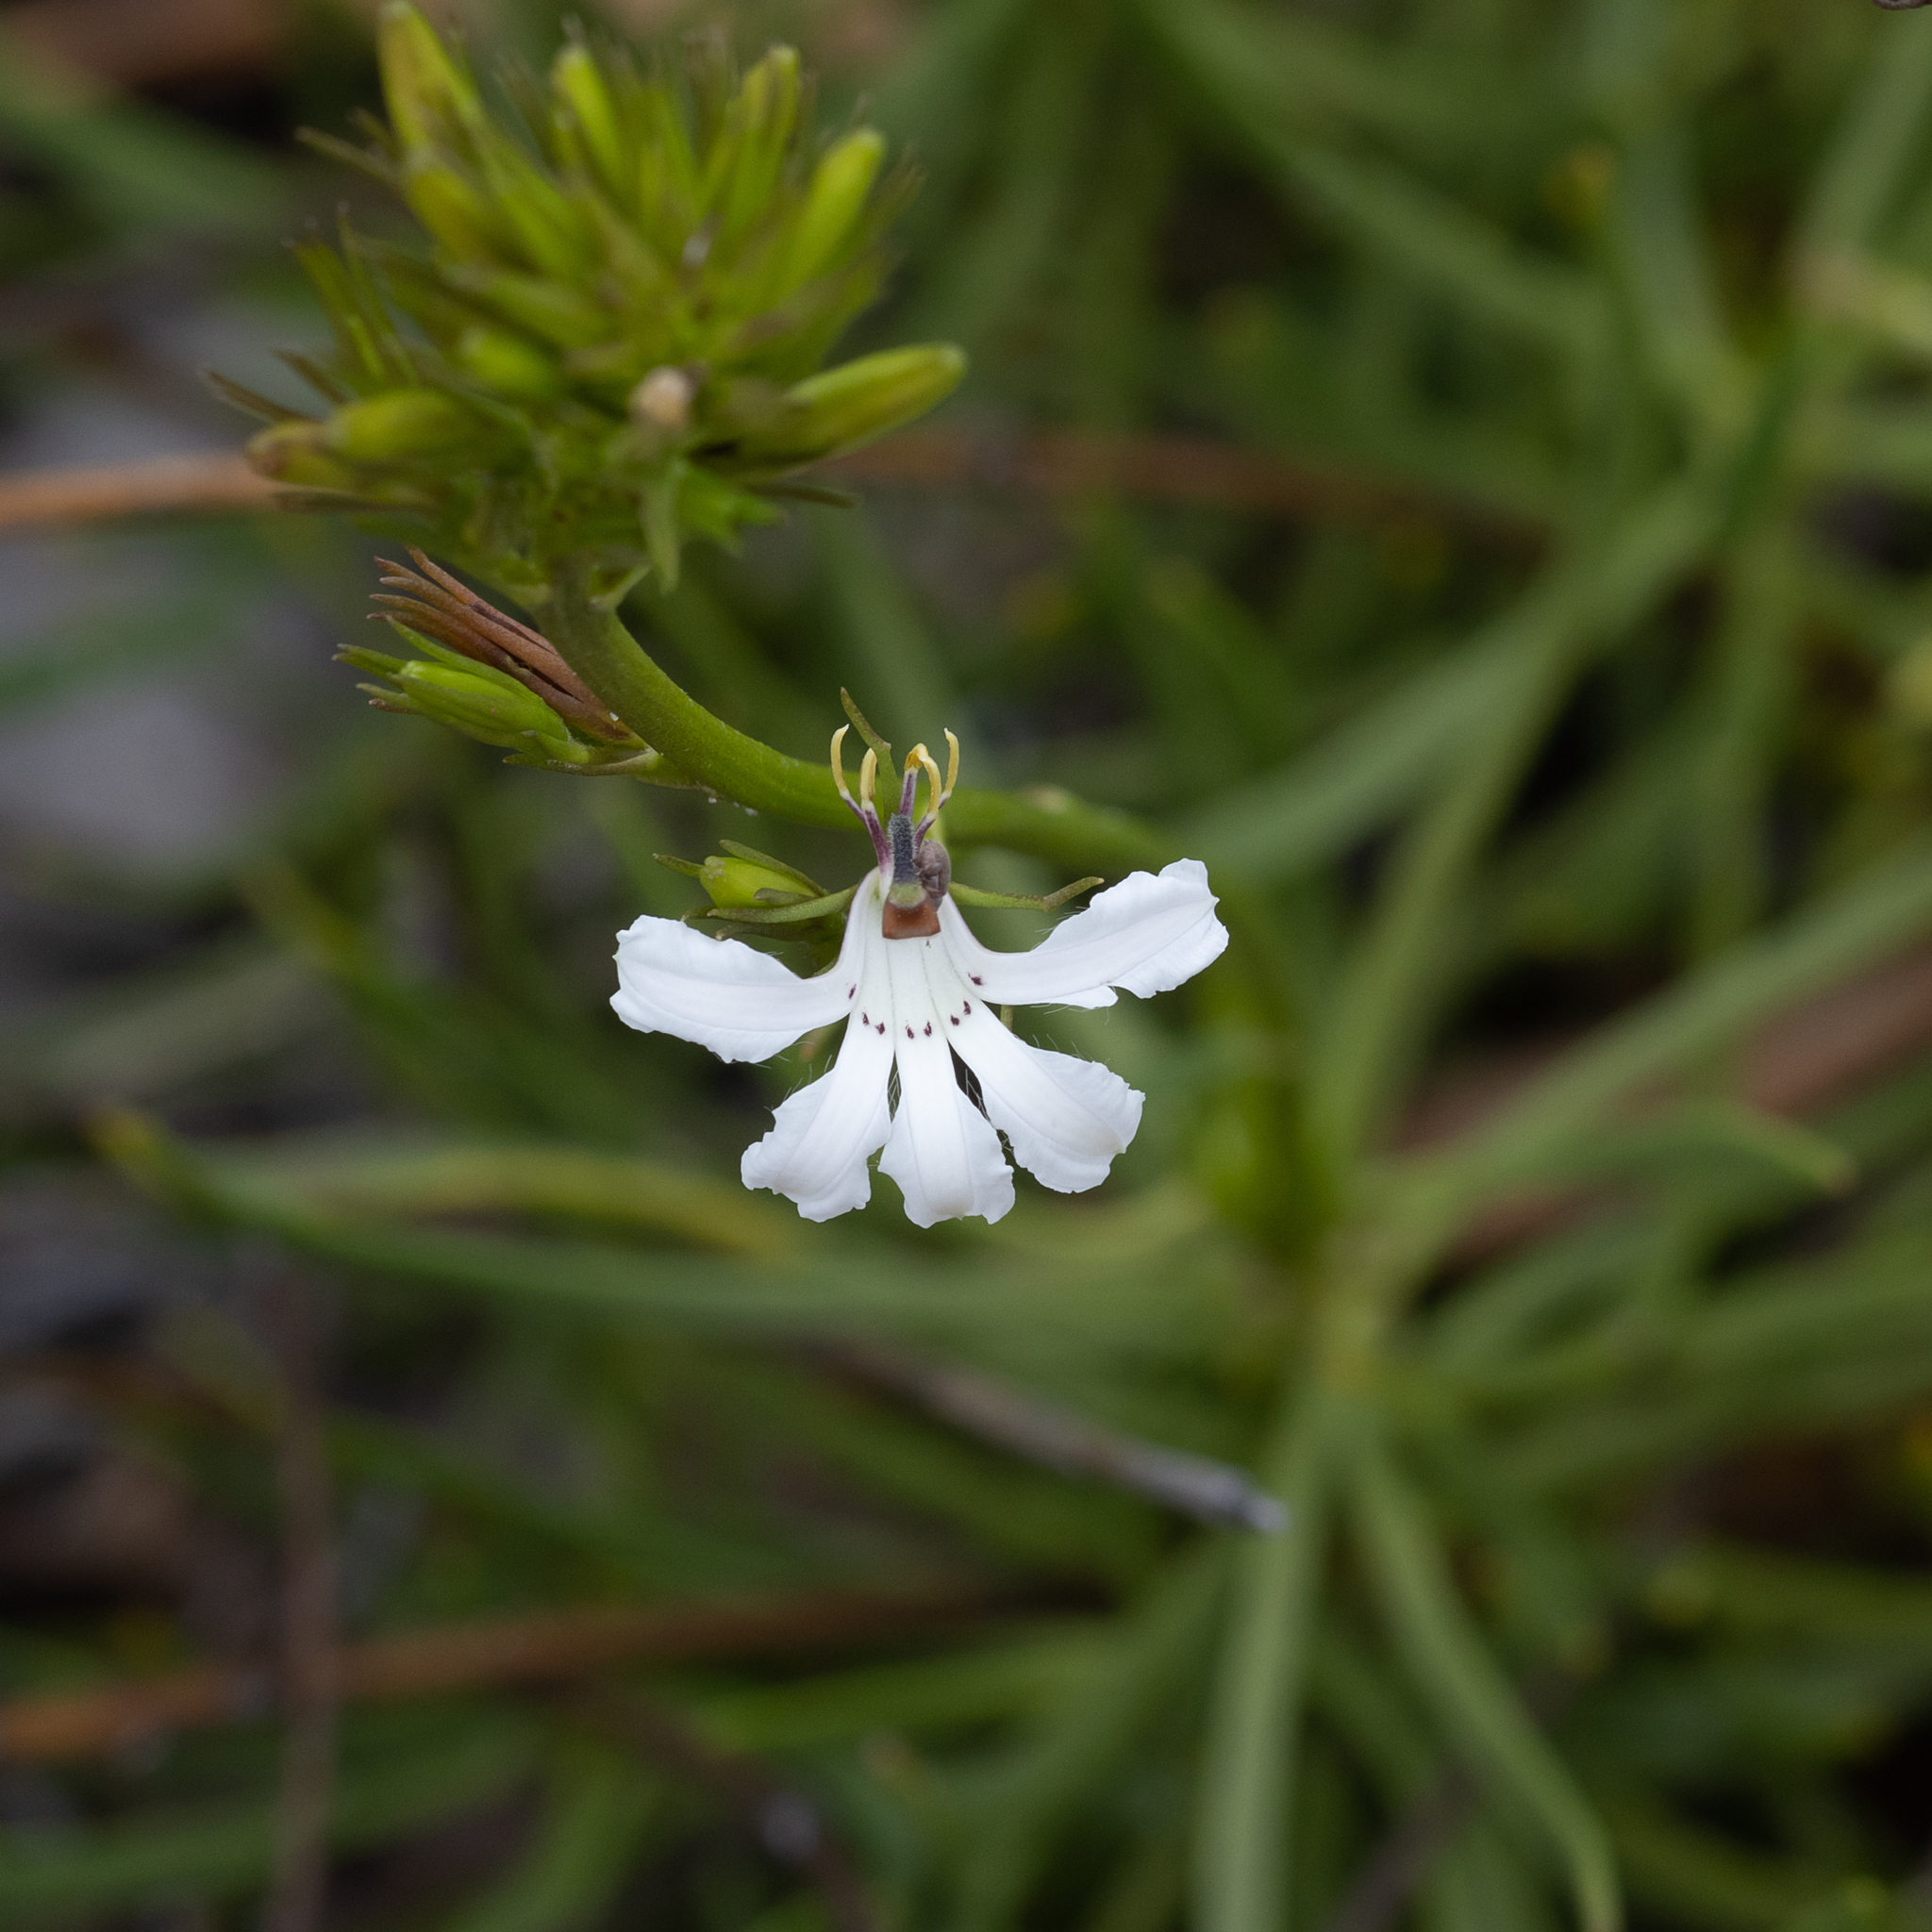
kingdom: Plantae
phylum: Tracheophyta
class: Magnoliopsida
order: Asterales
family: Goodeniaceae
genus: Goodenia
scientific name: Goodenia scapigera
